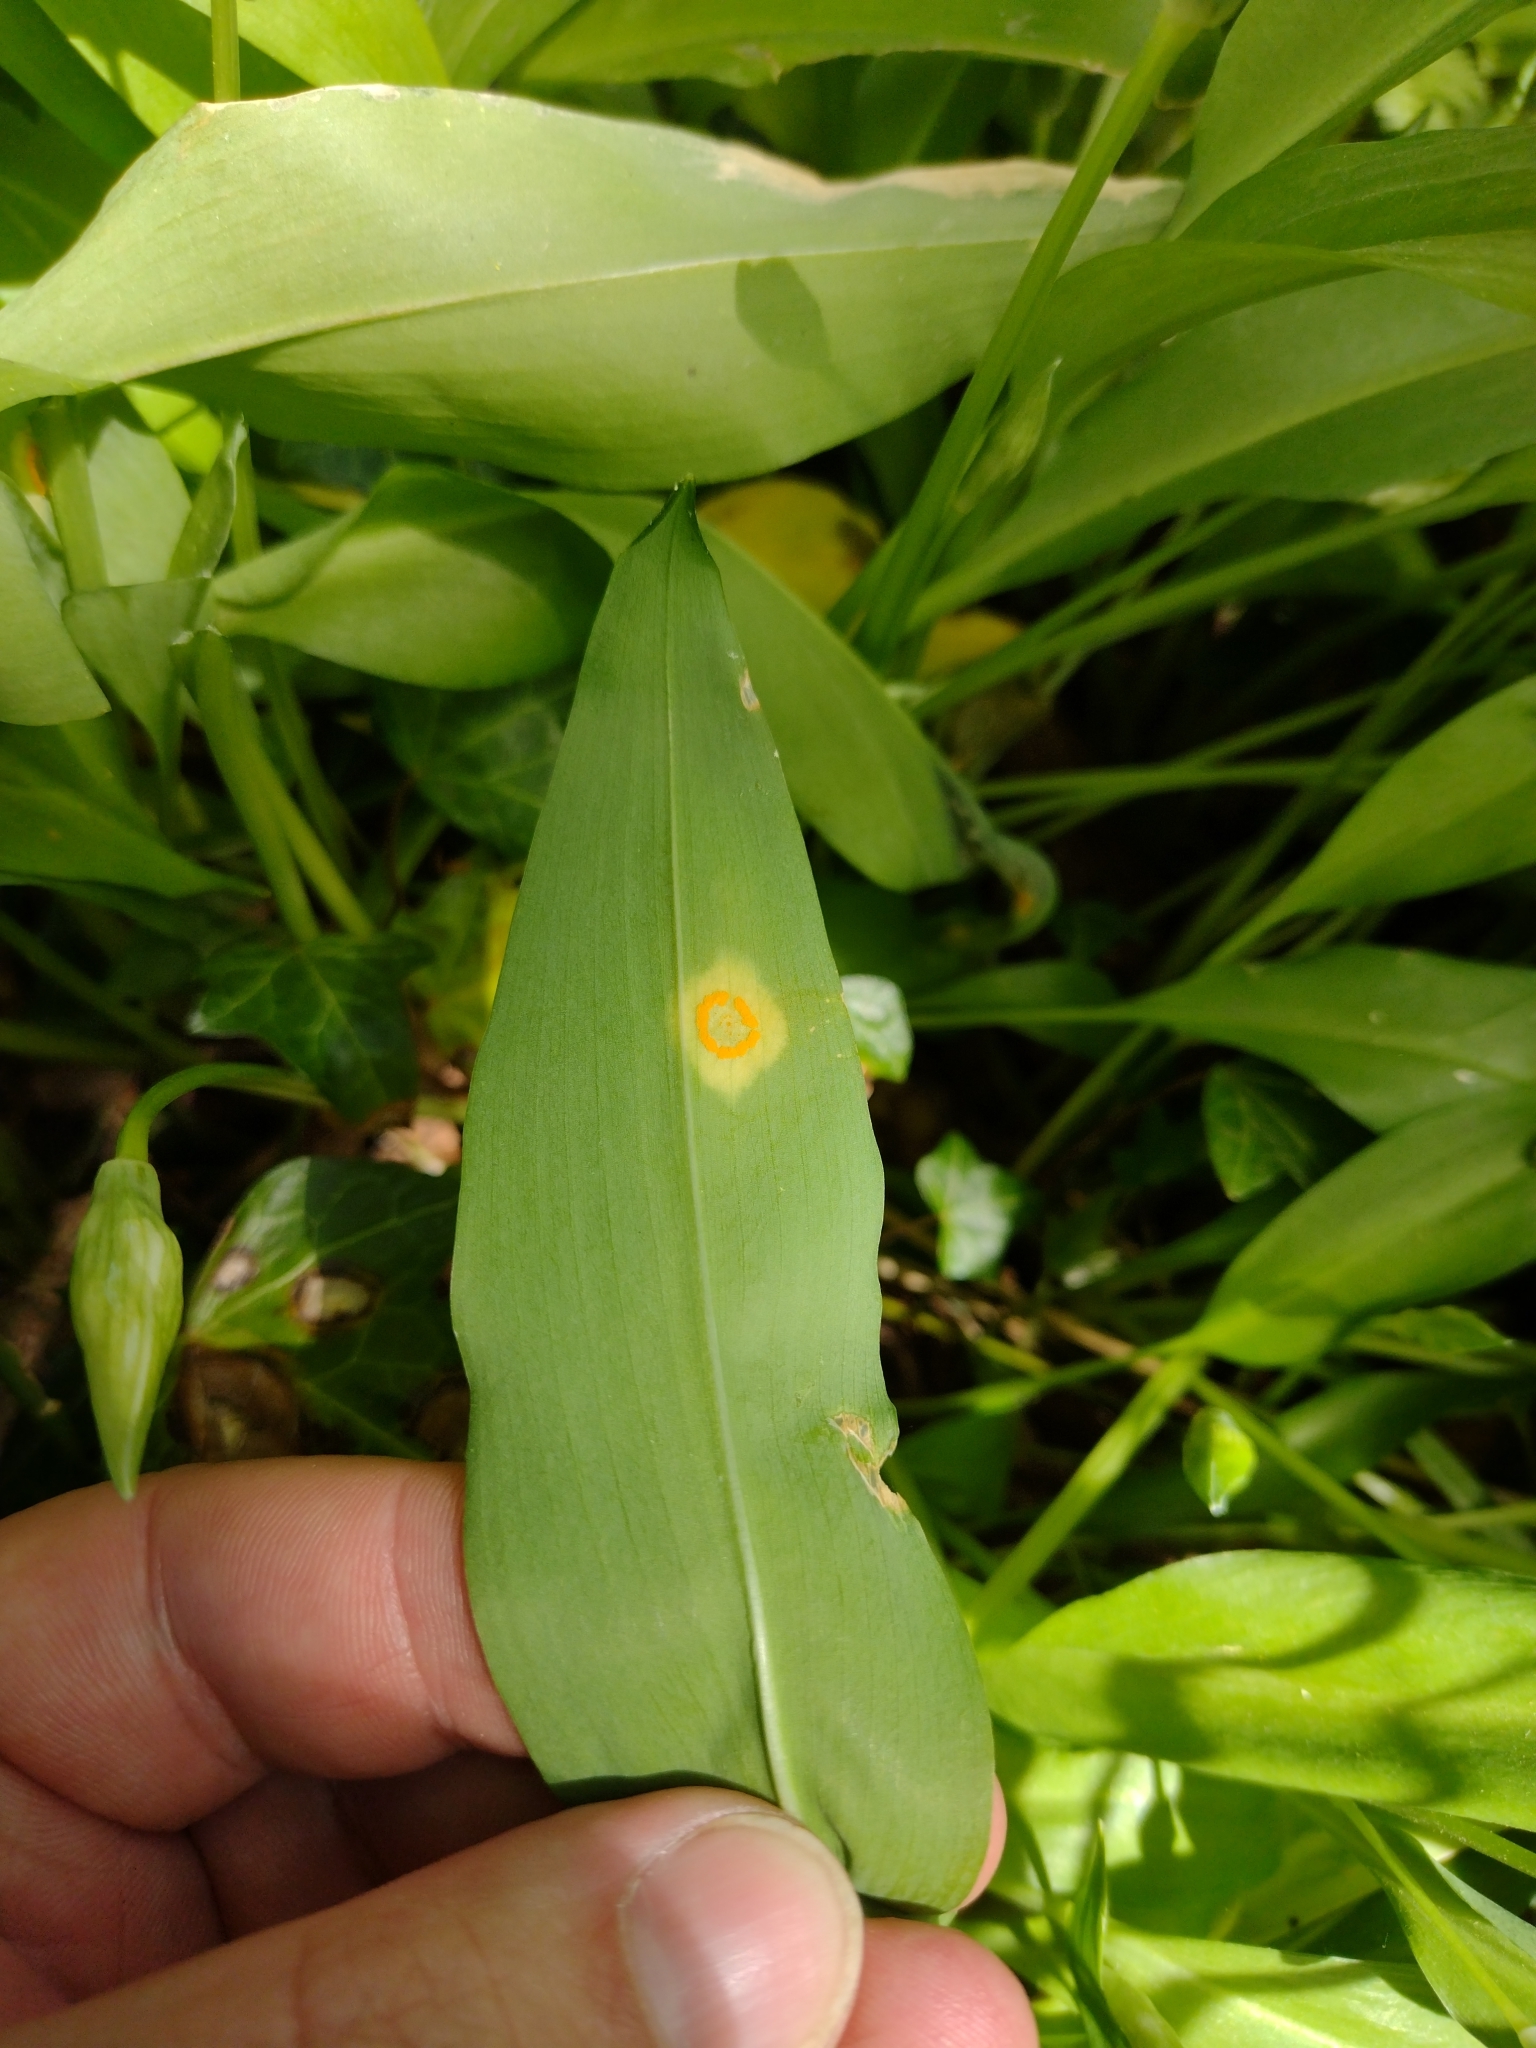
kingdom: Fungi
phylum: Basidiomycota
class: Pucciniomycetes
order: Pucciniales
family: Pucciniaceae
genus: Caeoma
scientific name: Caeoma allii-ursini
